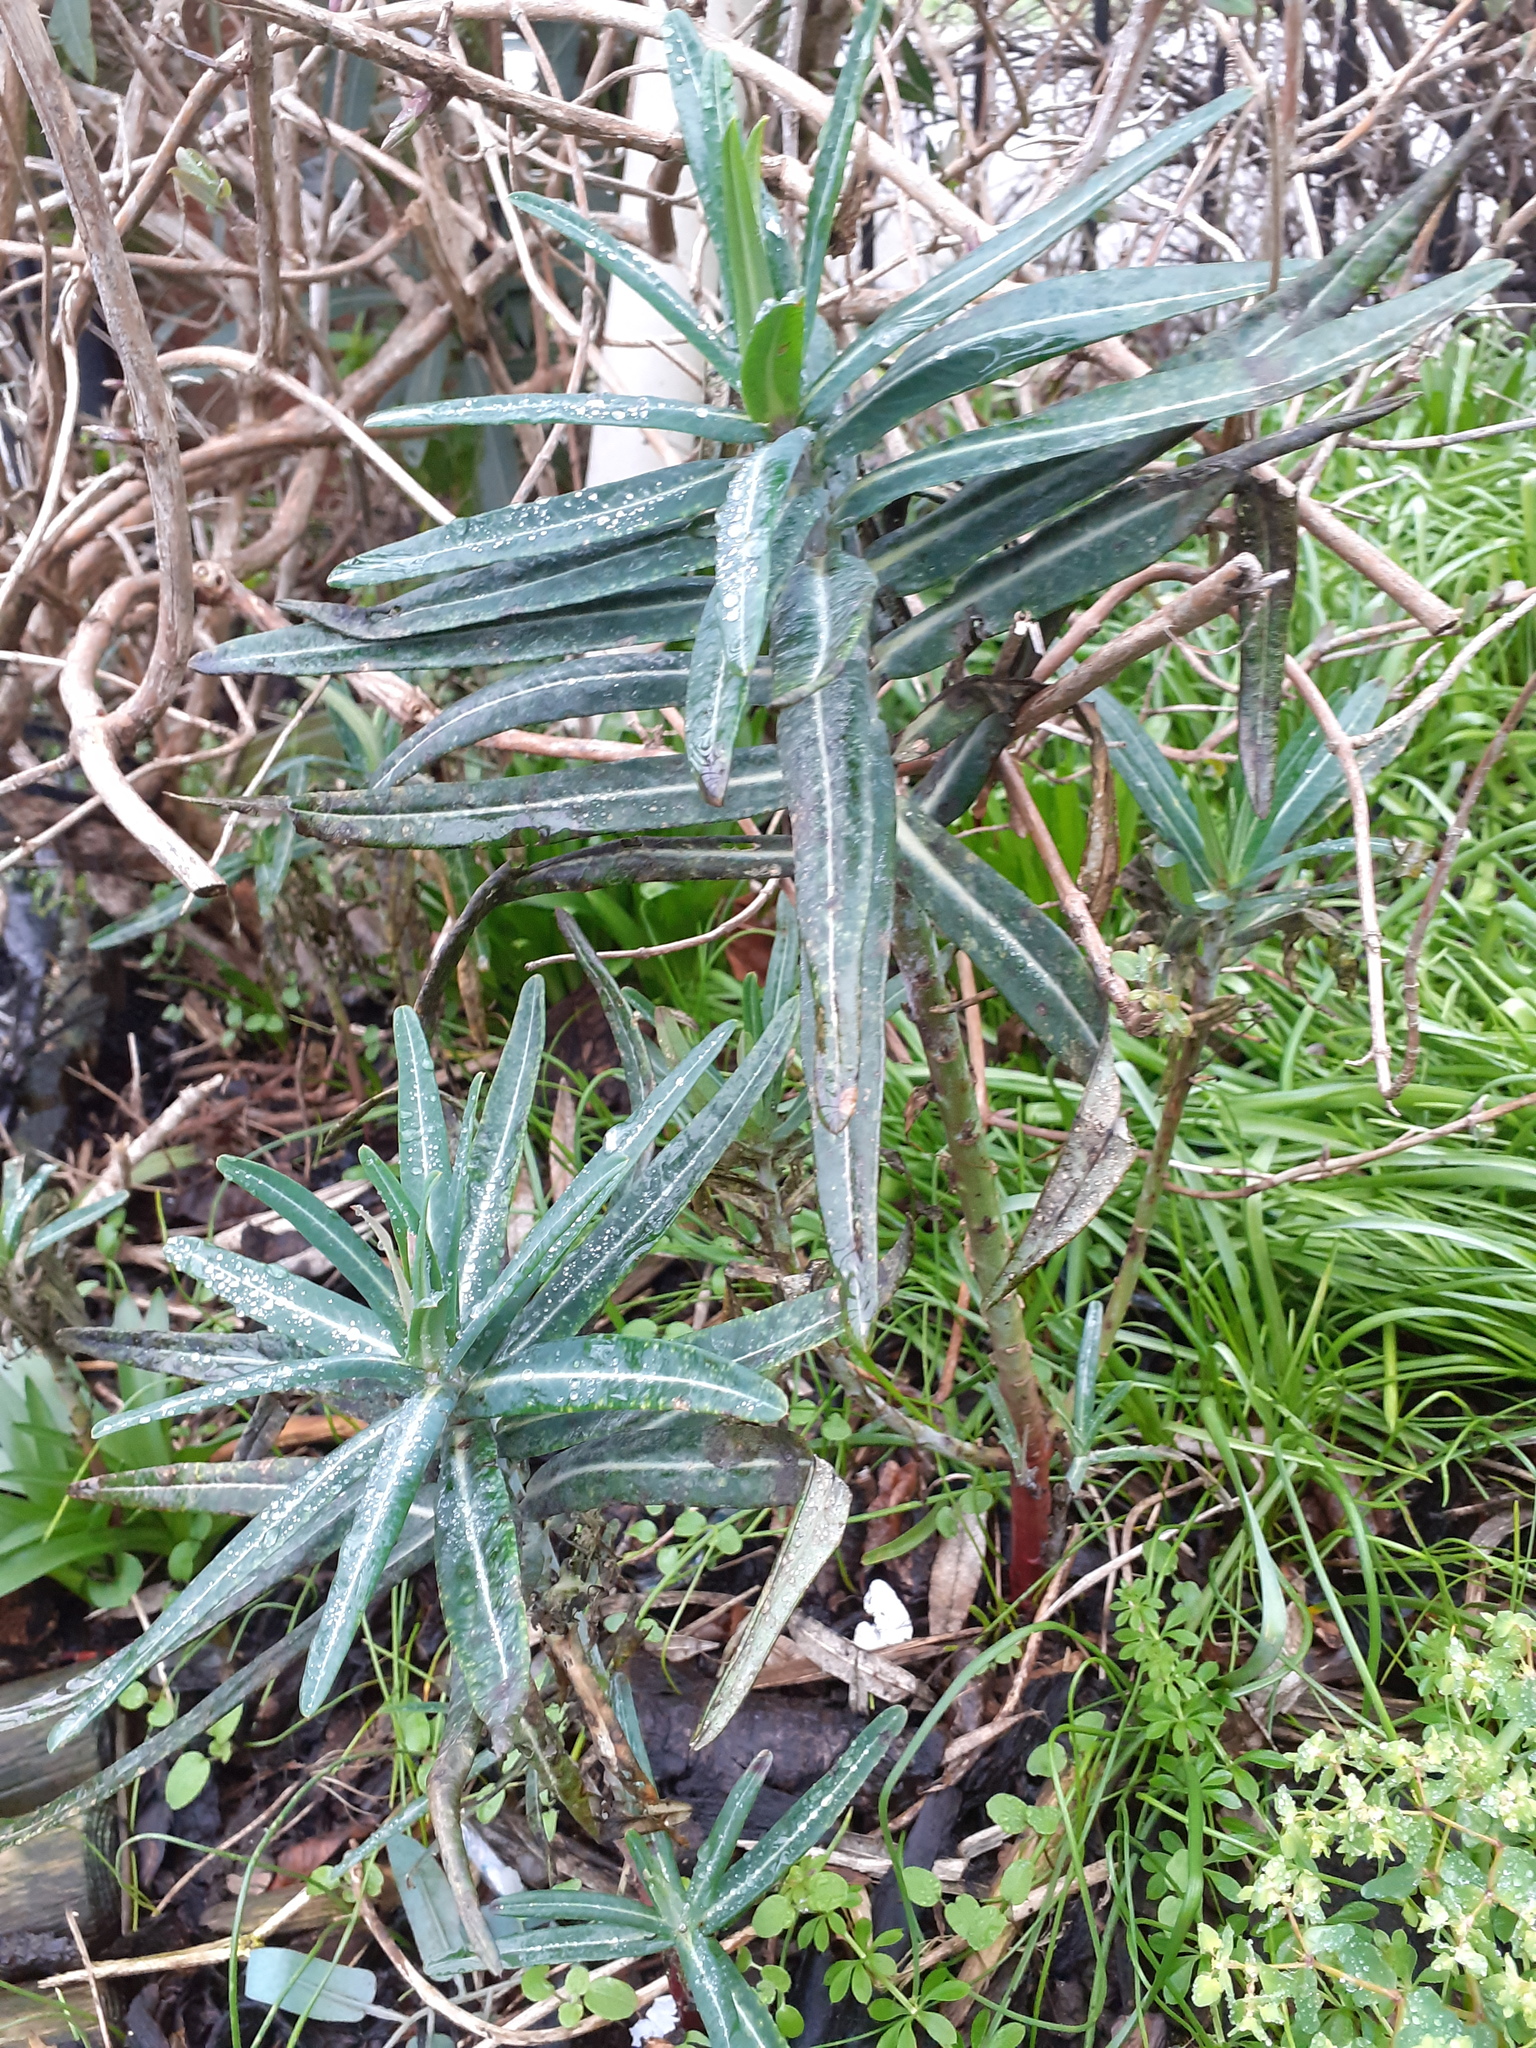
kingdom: Plantae
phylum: Tracheophyta
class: Magnoliopsida
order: Malpighiales
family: Euphorbiaceae
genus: Euphorbia
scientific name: Euphorbia lathyris
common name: Caper spurge
